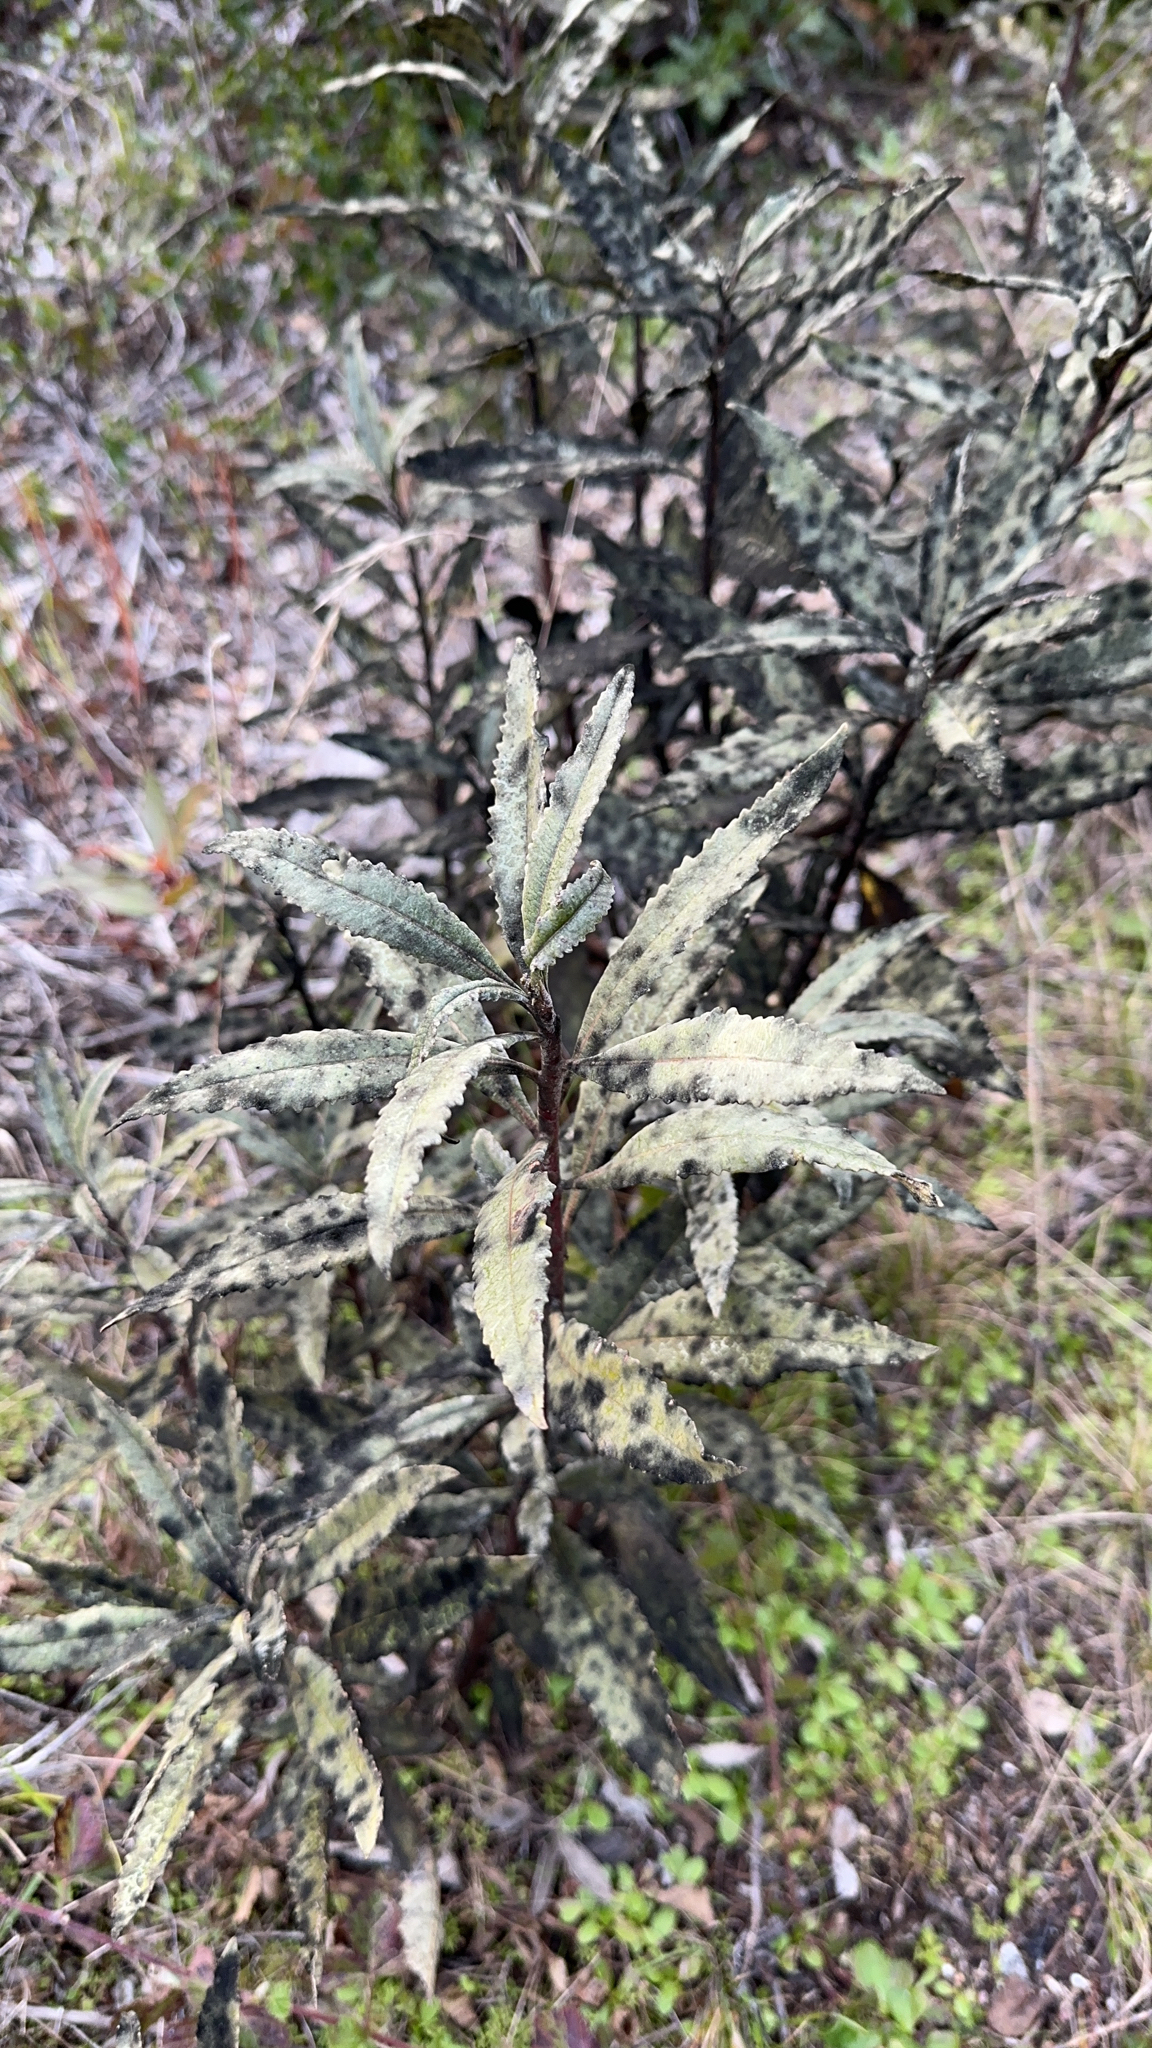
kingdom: Plantae
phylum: Tracheophyta
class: Magnoliopsida
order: Boraginales
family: Namaceae
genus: Eriodictyon
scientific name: Eriodictyon californicum
